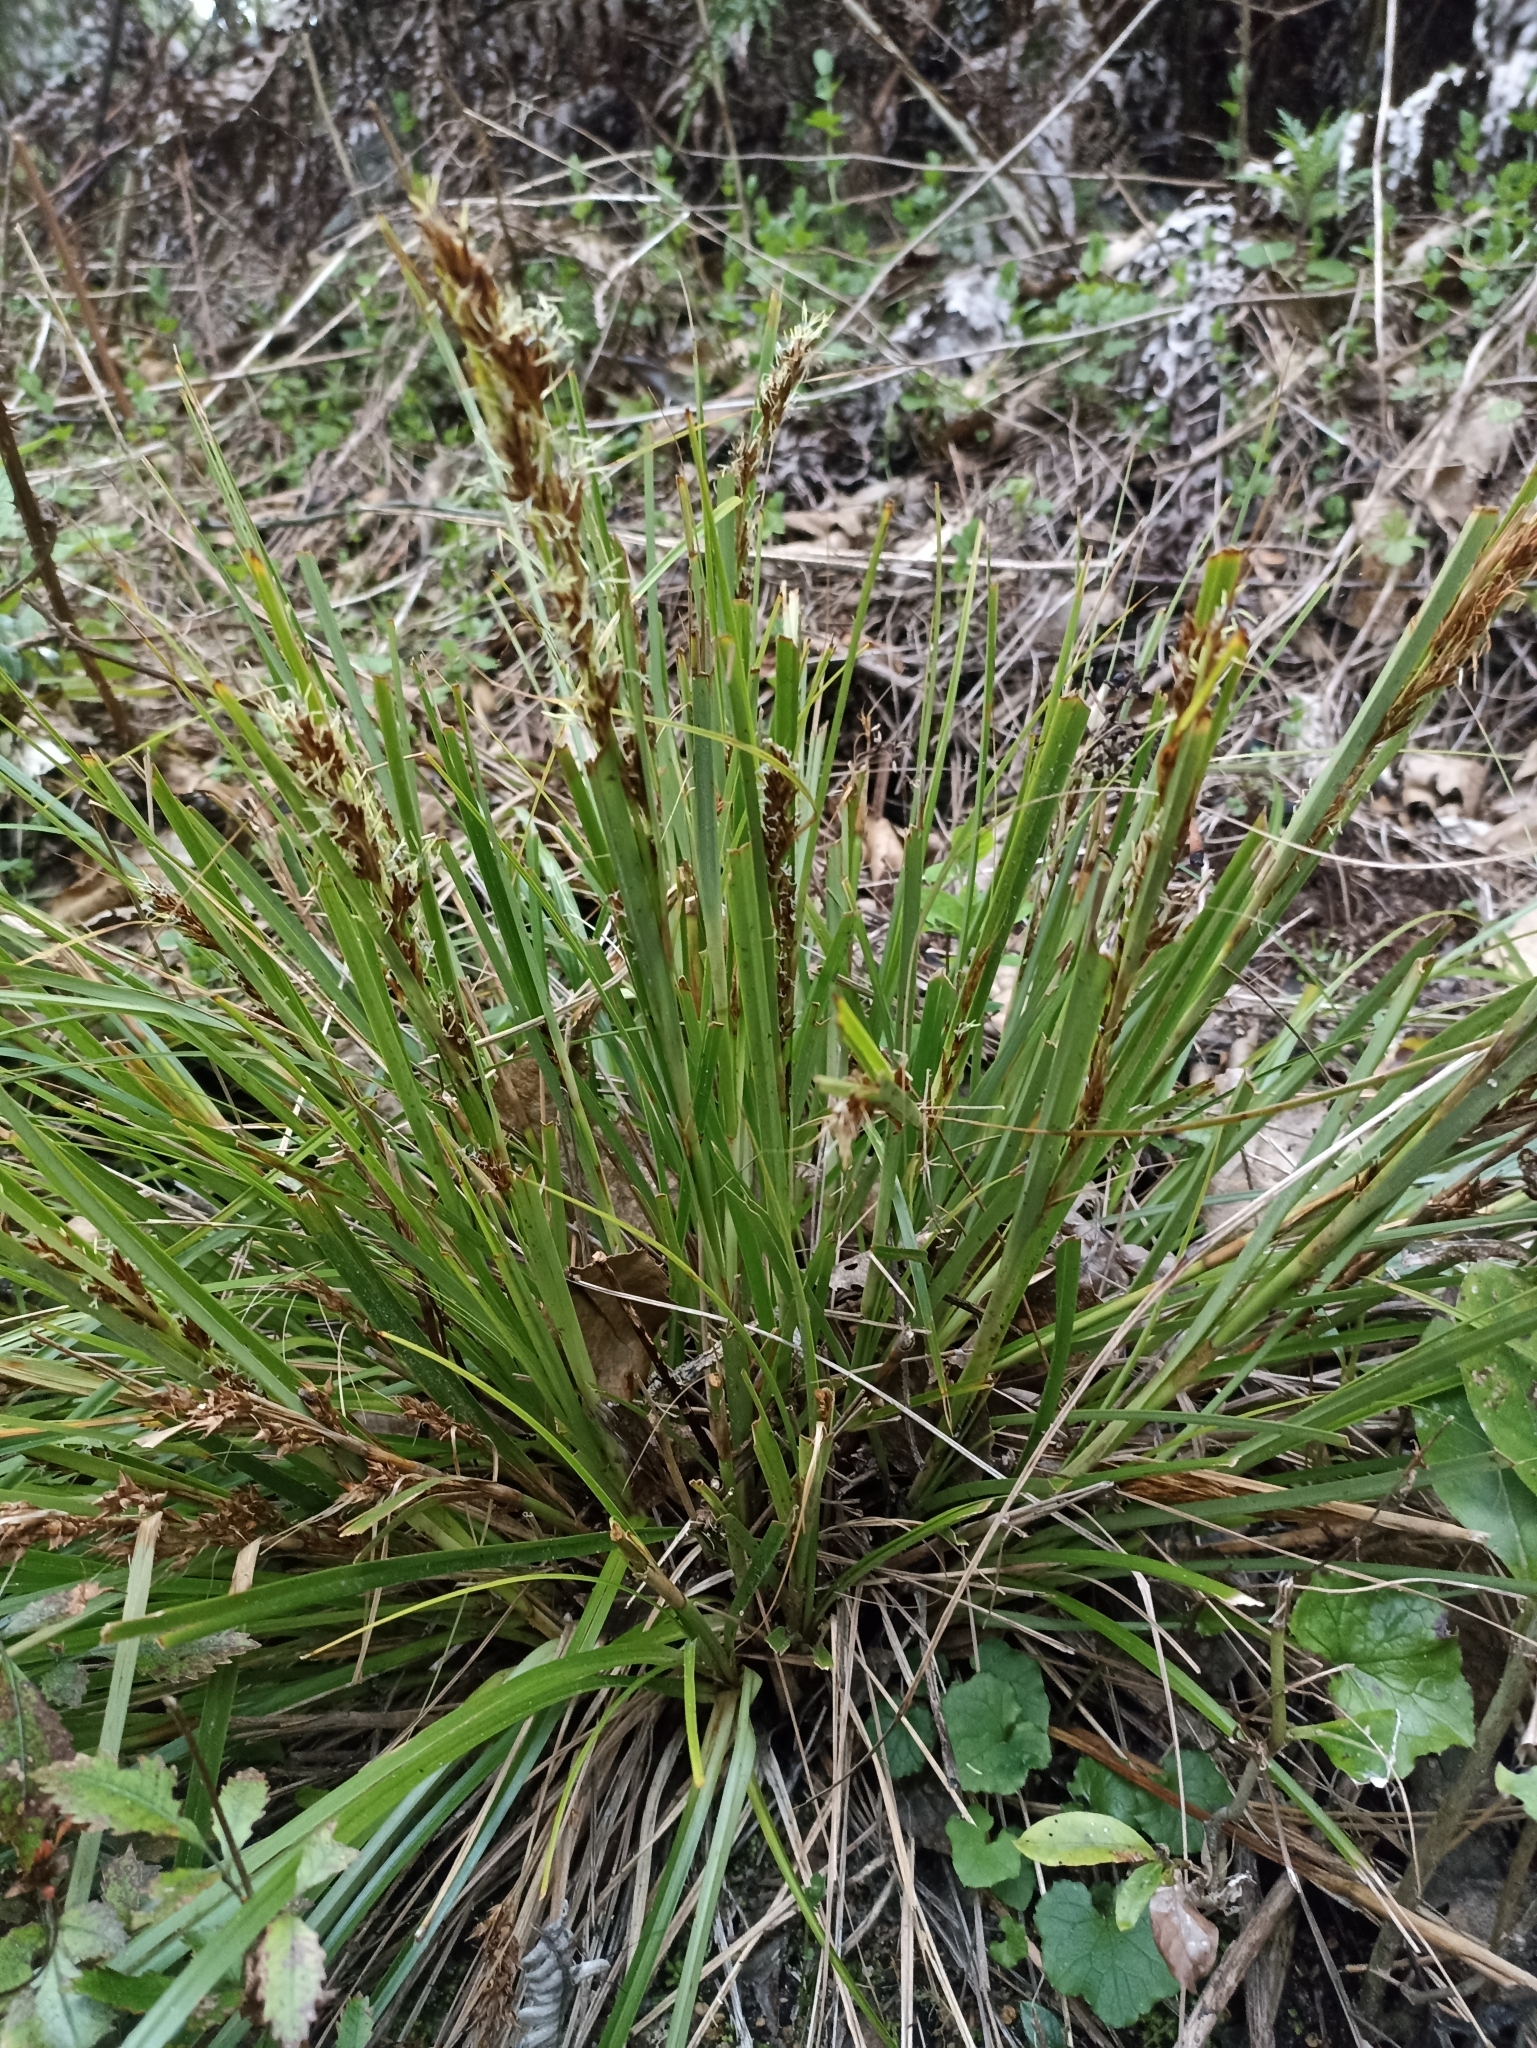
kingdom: Plantae
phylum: Tracheophyta
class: Liliopsida
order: Poales
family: Cyperaceae
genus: Morelotia
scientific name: Morelotia affinis
